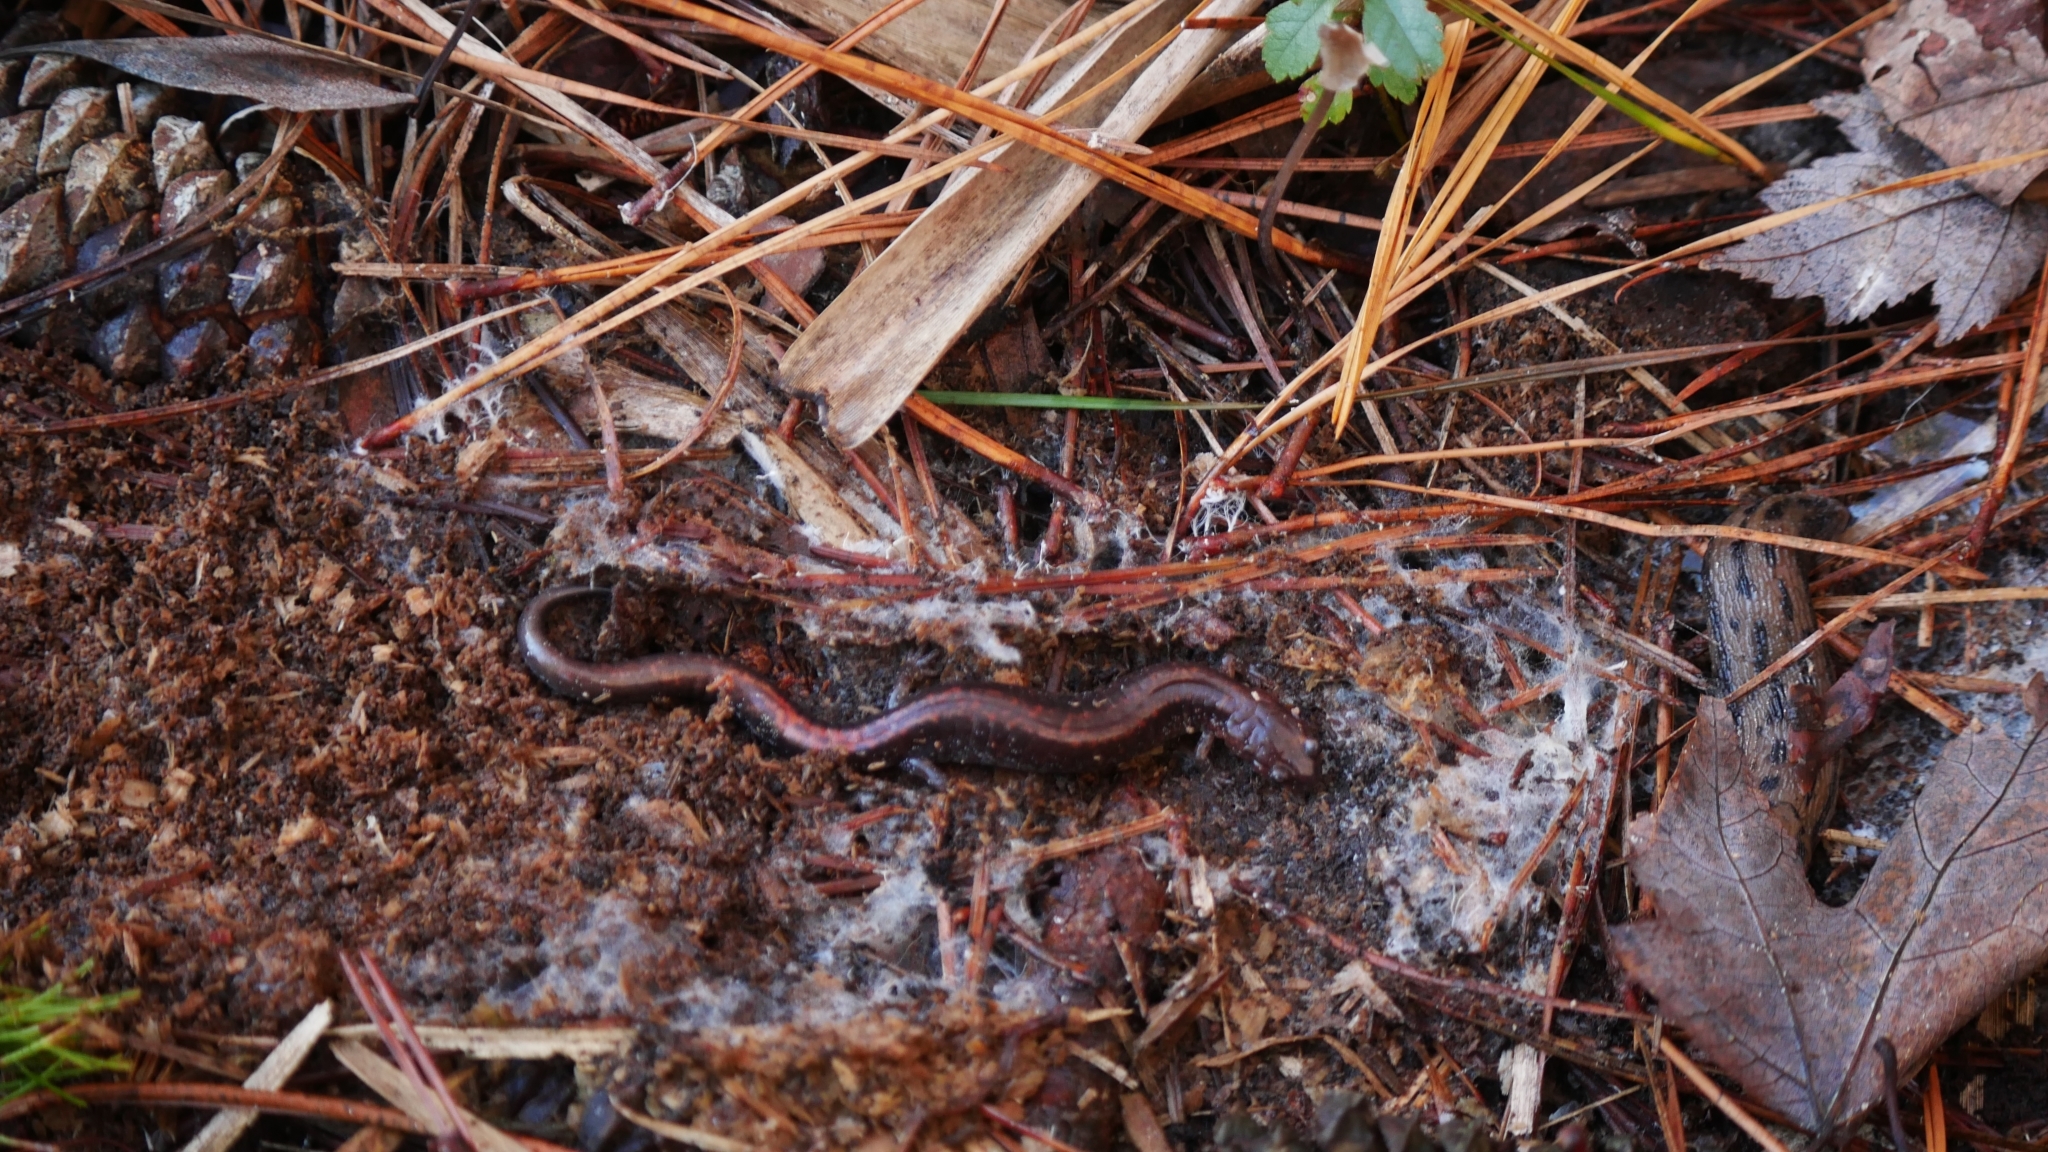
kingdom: Animalia
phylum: Chordata
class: Amphibia
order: Caudata
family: Plethodontidae
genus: Plethodon
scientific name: Plethodon cinereus
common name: Redback salamander
